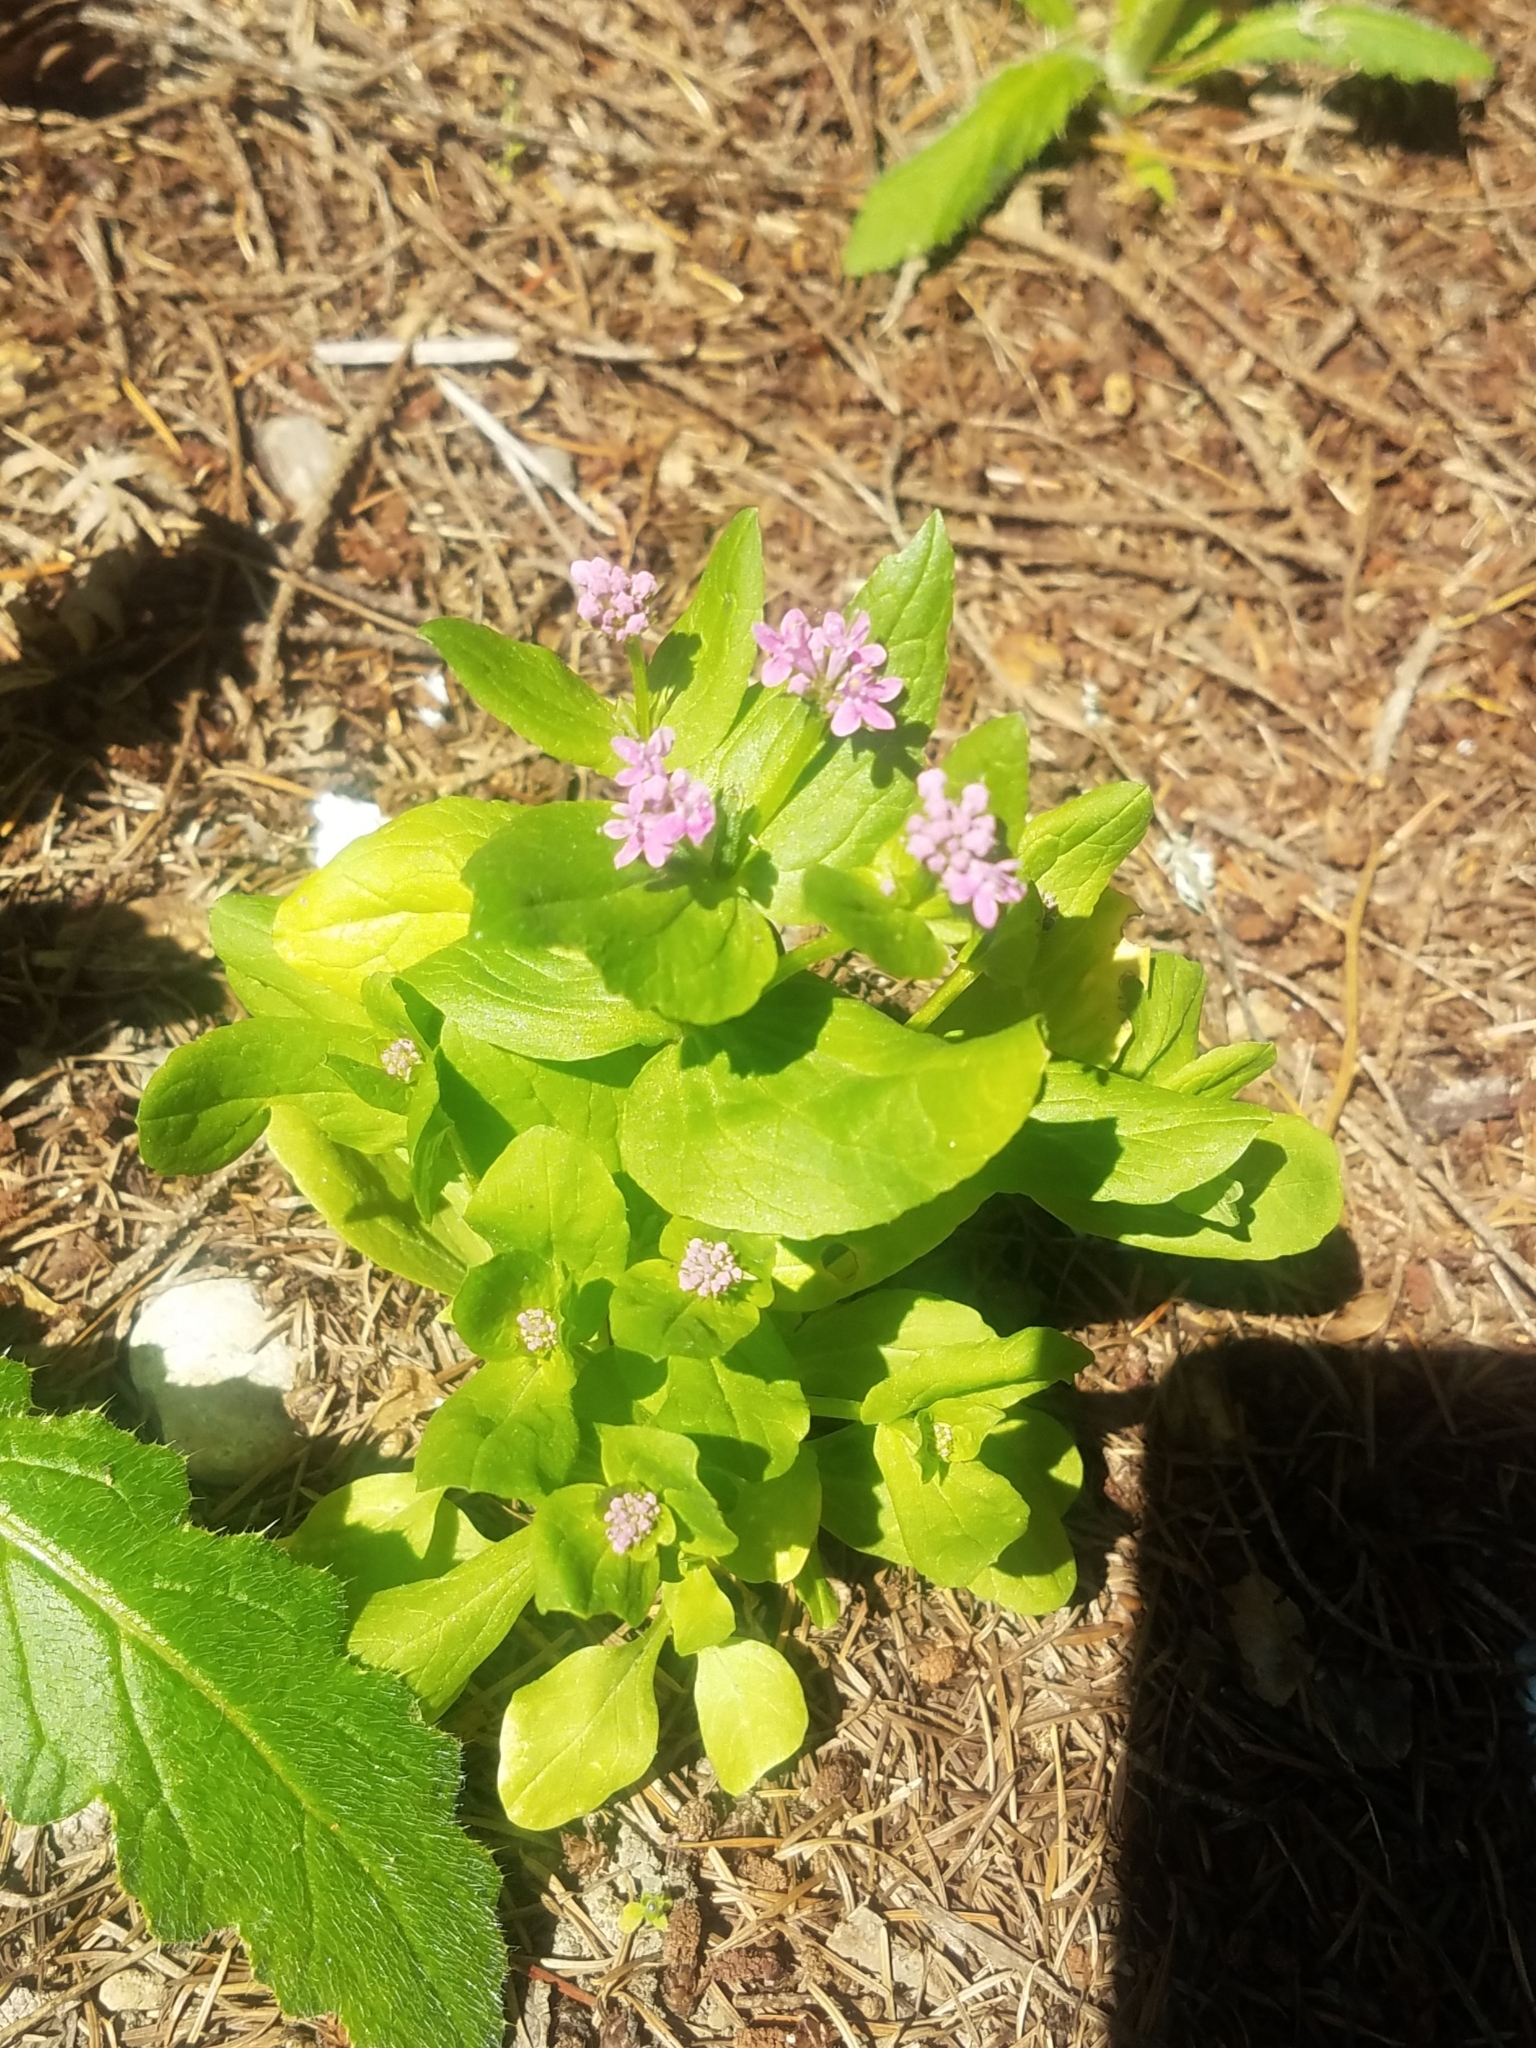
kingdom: Plantae
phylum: Tracheophyta
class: Magnoliopsida
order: Dipsacales
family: Caprifoliaceae
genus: Plectritis
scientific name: Plectritis congesta
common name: Pink plectritis
